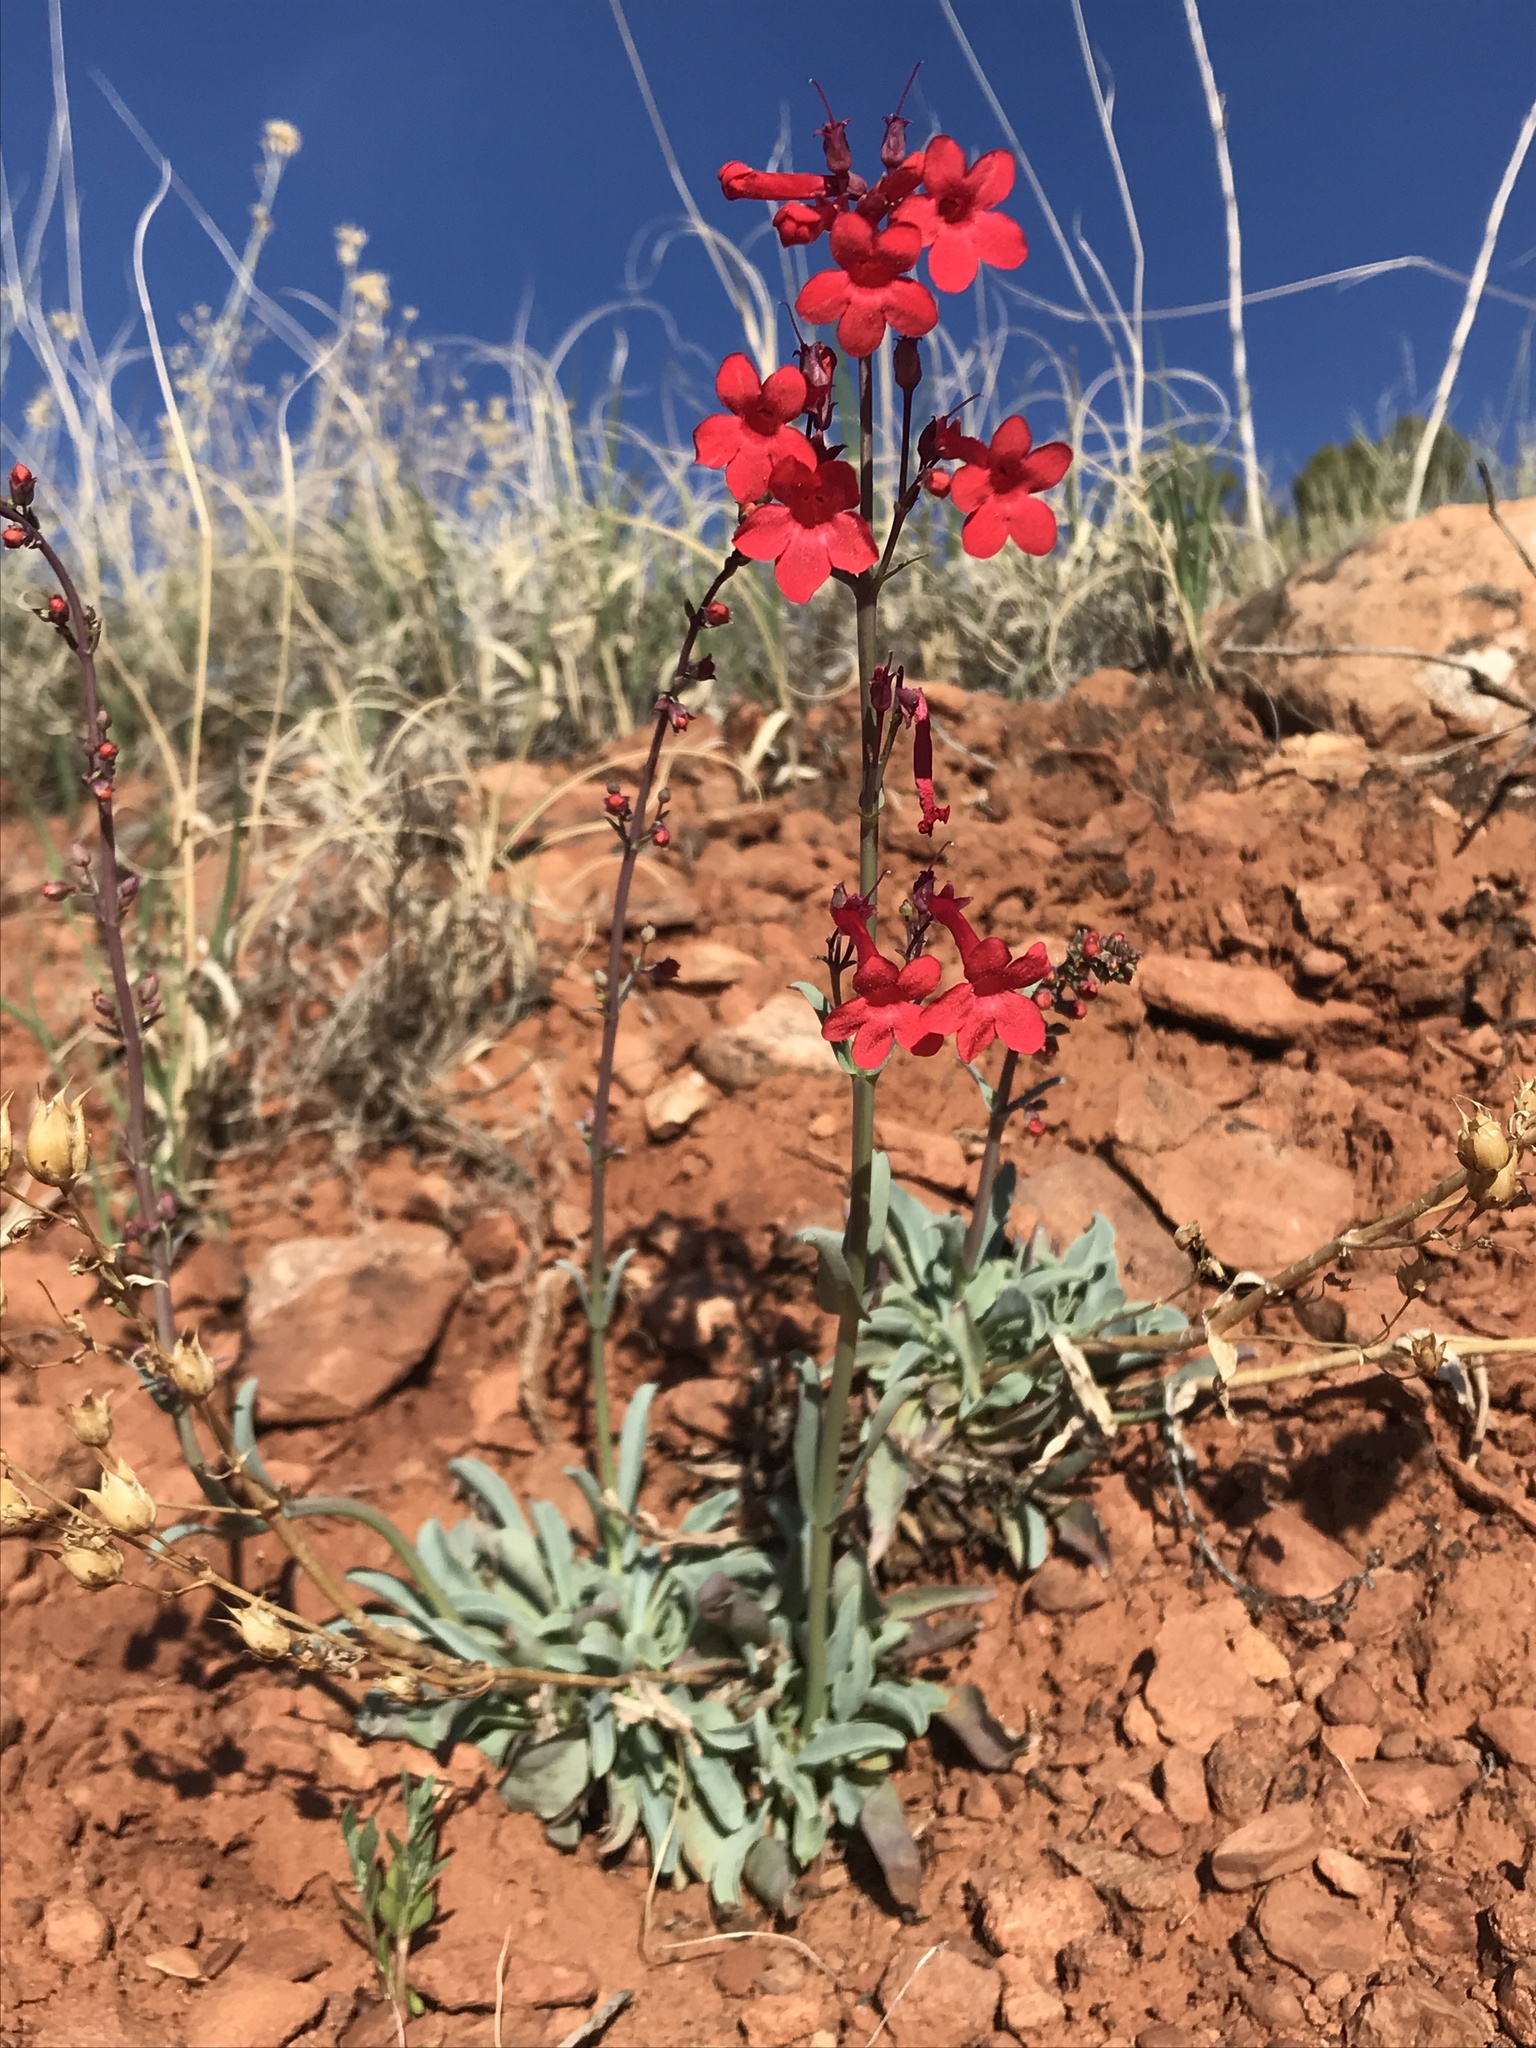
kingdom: Plantae
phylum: Tracheophyta
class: Magnoliopsida
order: Lamiales
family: Plantaginaceae
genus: Penstemon
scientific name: Penstemon utahensis
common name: Utah penstemon
